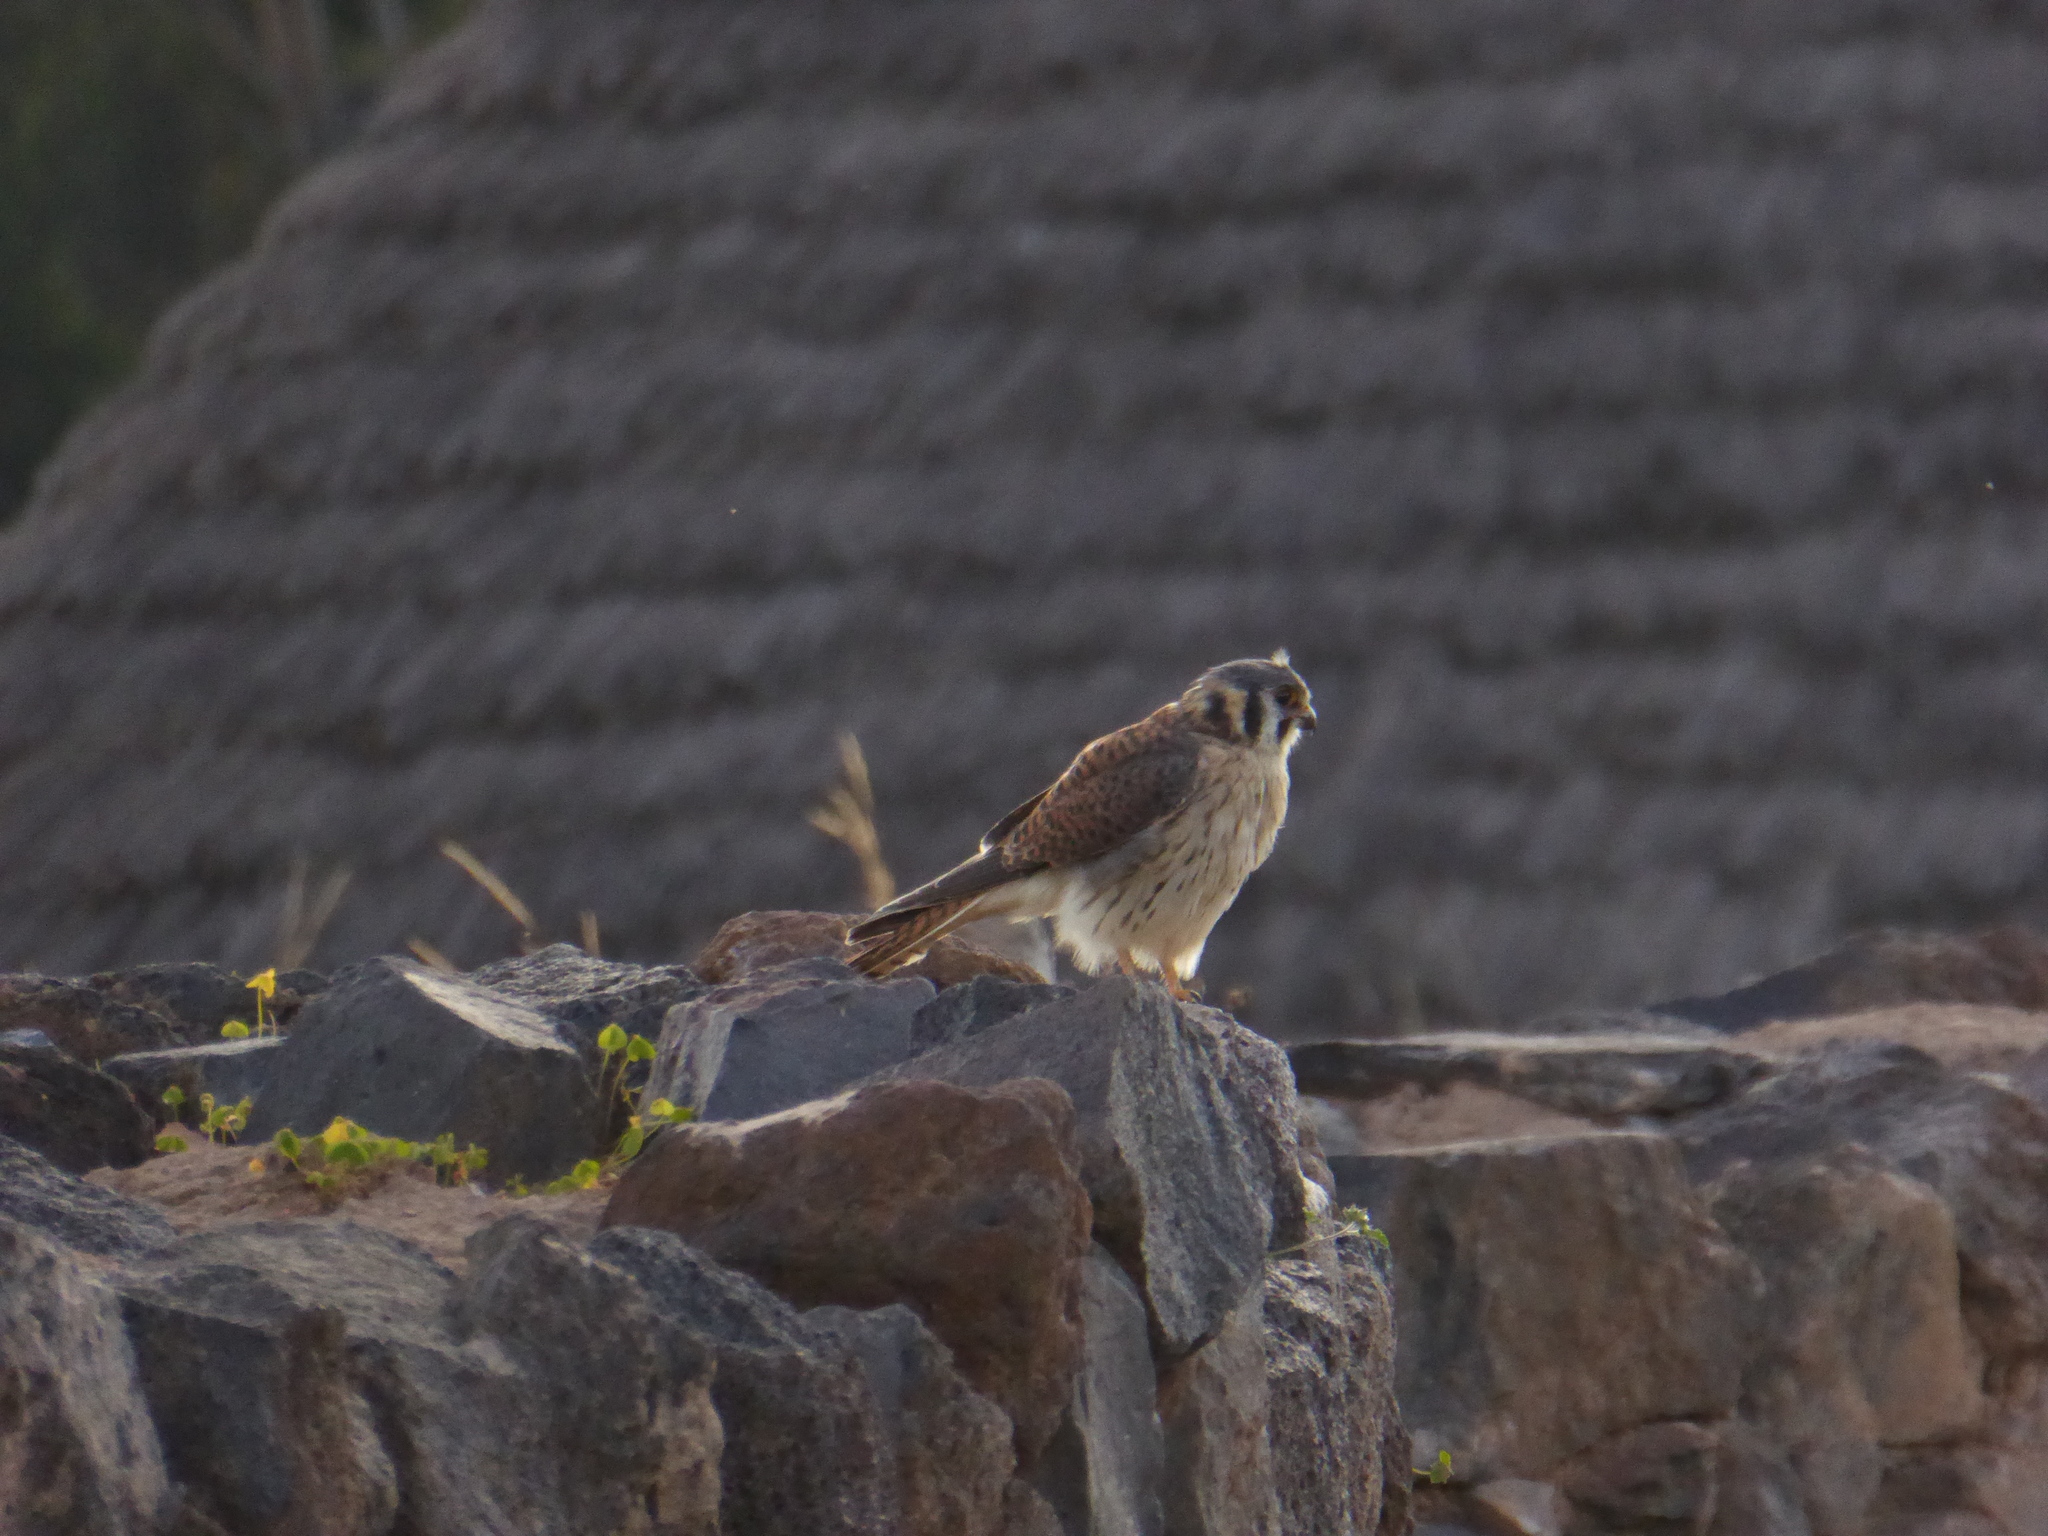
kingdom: Animalia
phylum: Chordata
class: Aves
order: Falconiformes
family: Falconidae
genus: Falco
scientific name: Falco sparverius
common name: American kestrel
